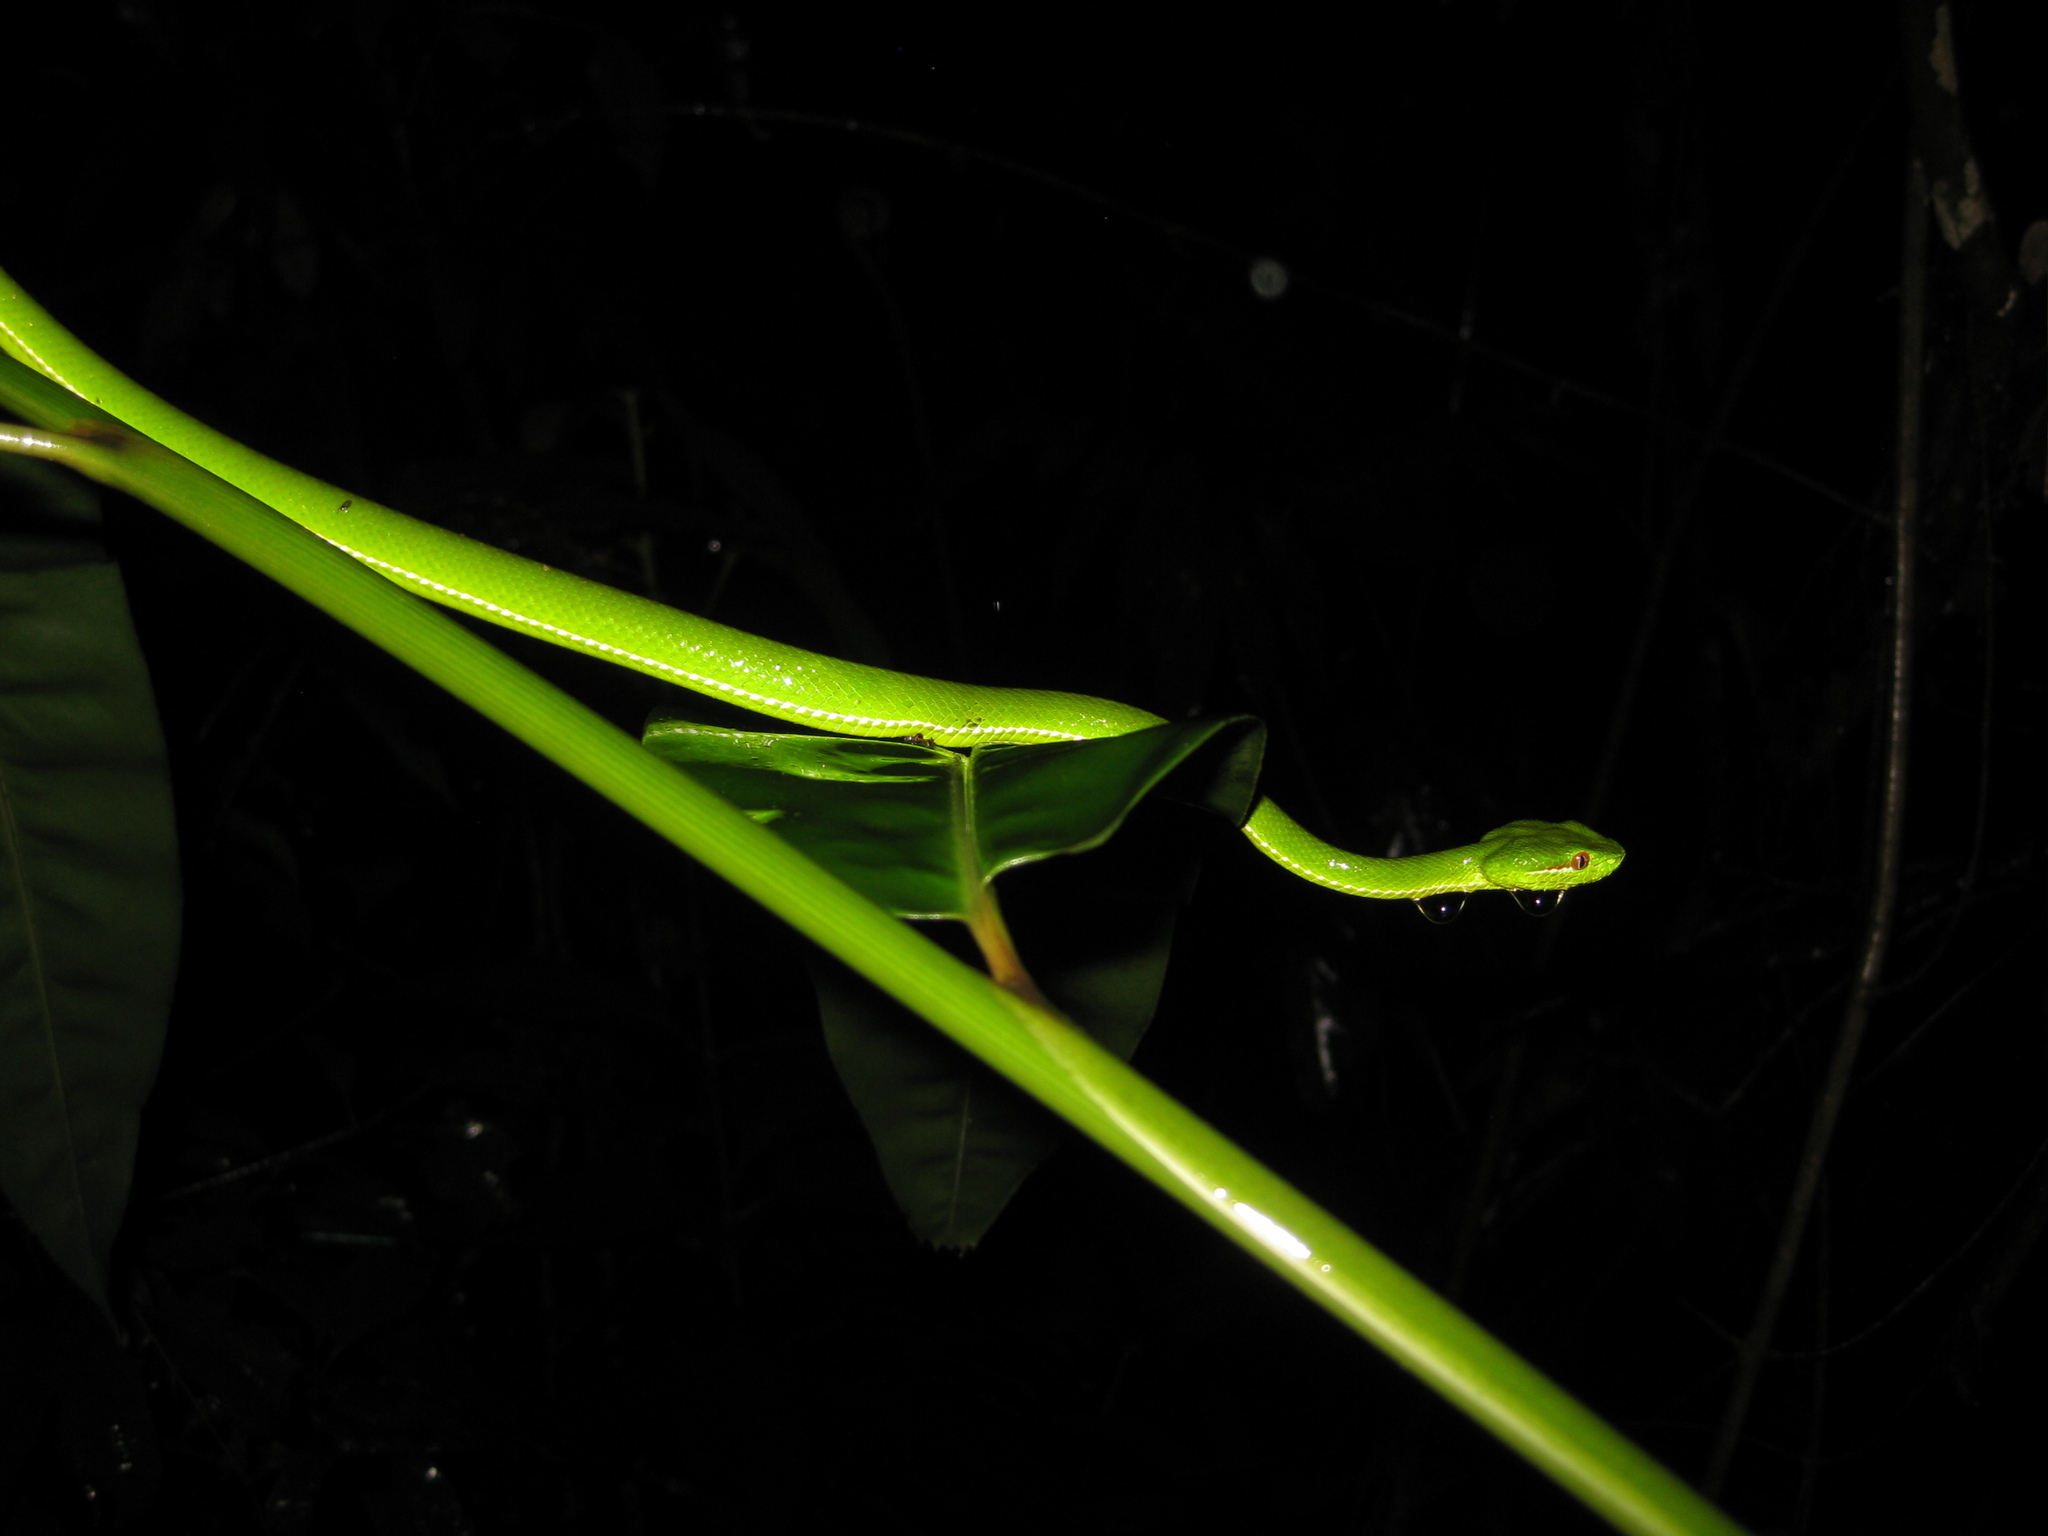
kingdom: Animalia
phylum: Chordata
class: Squamata
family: Viperidae
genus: Trimeresurus
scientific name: Trimeresurus popeiorum
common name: Pope's bamboo pit viper
